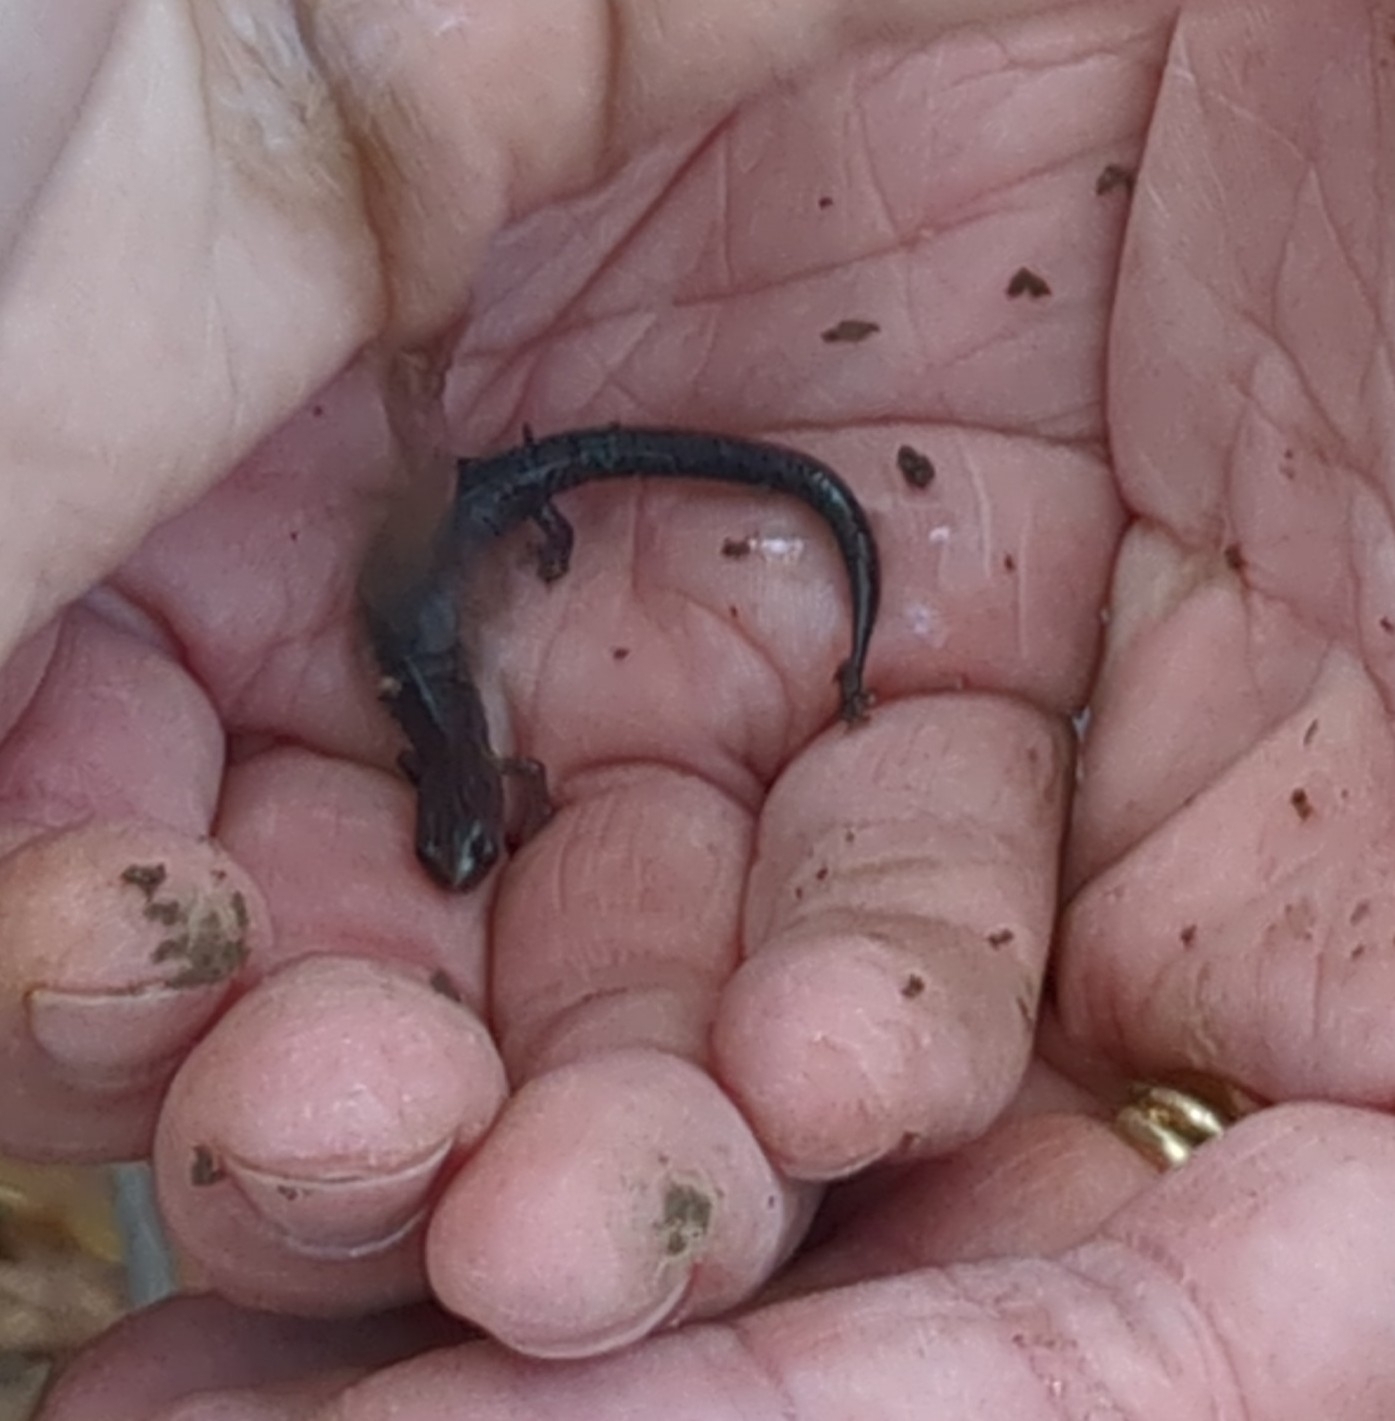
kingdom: Animalia
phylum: Chordata
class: Amphibia
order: Caudata
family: Plethodontidae
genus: Plethodon
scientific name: Plethodon dorsalis
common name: Northern zigzag salamander
